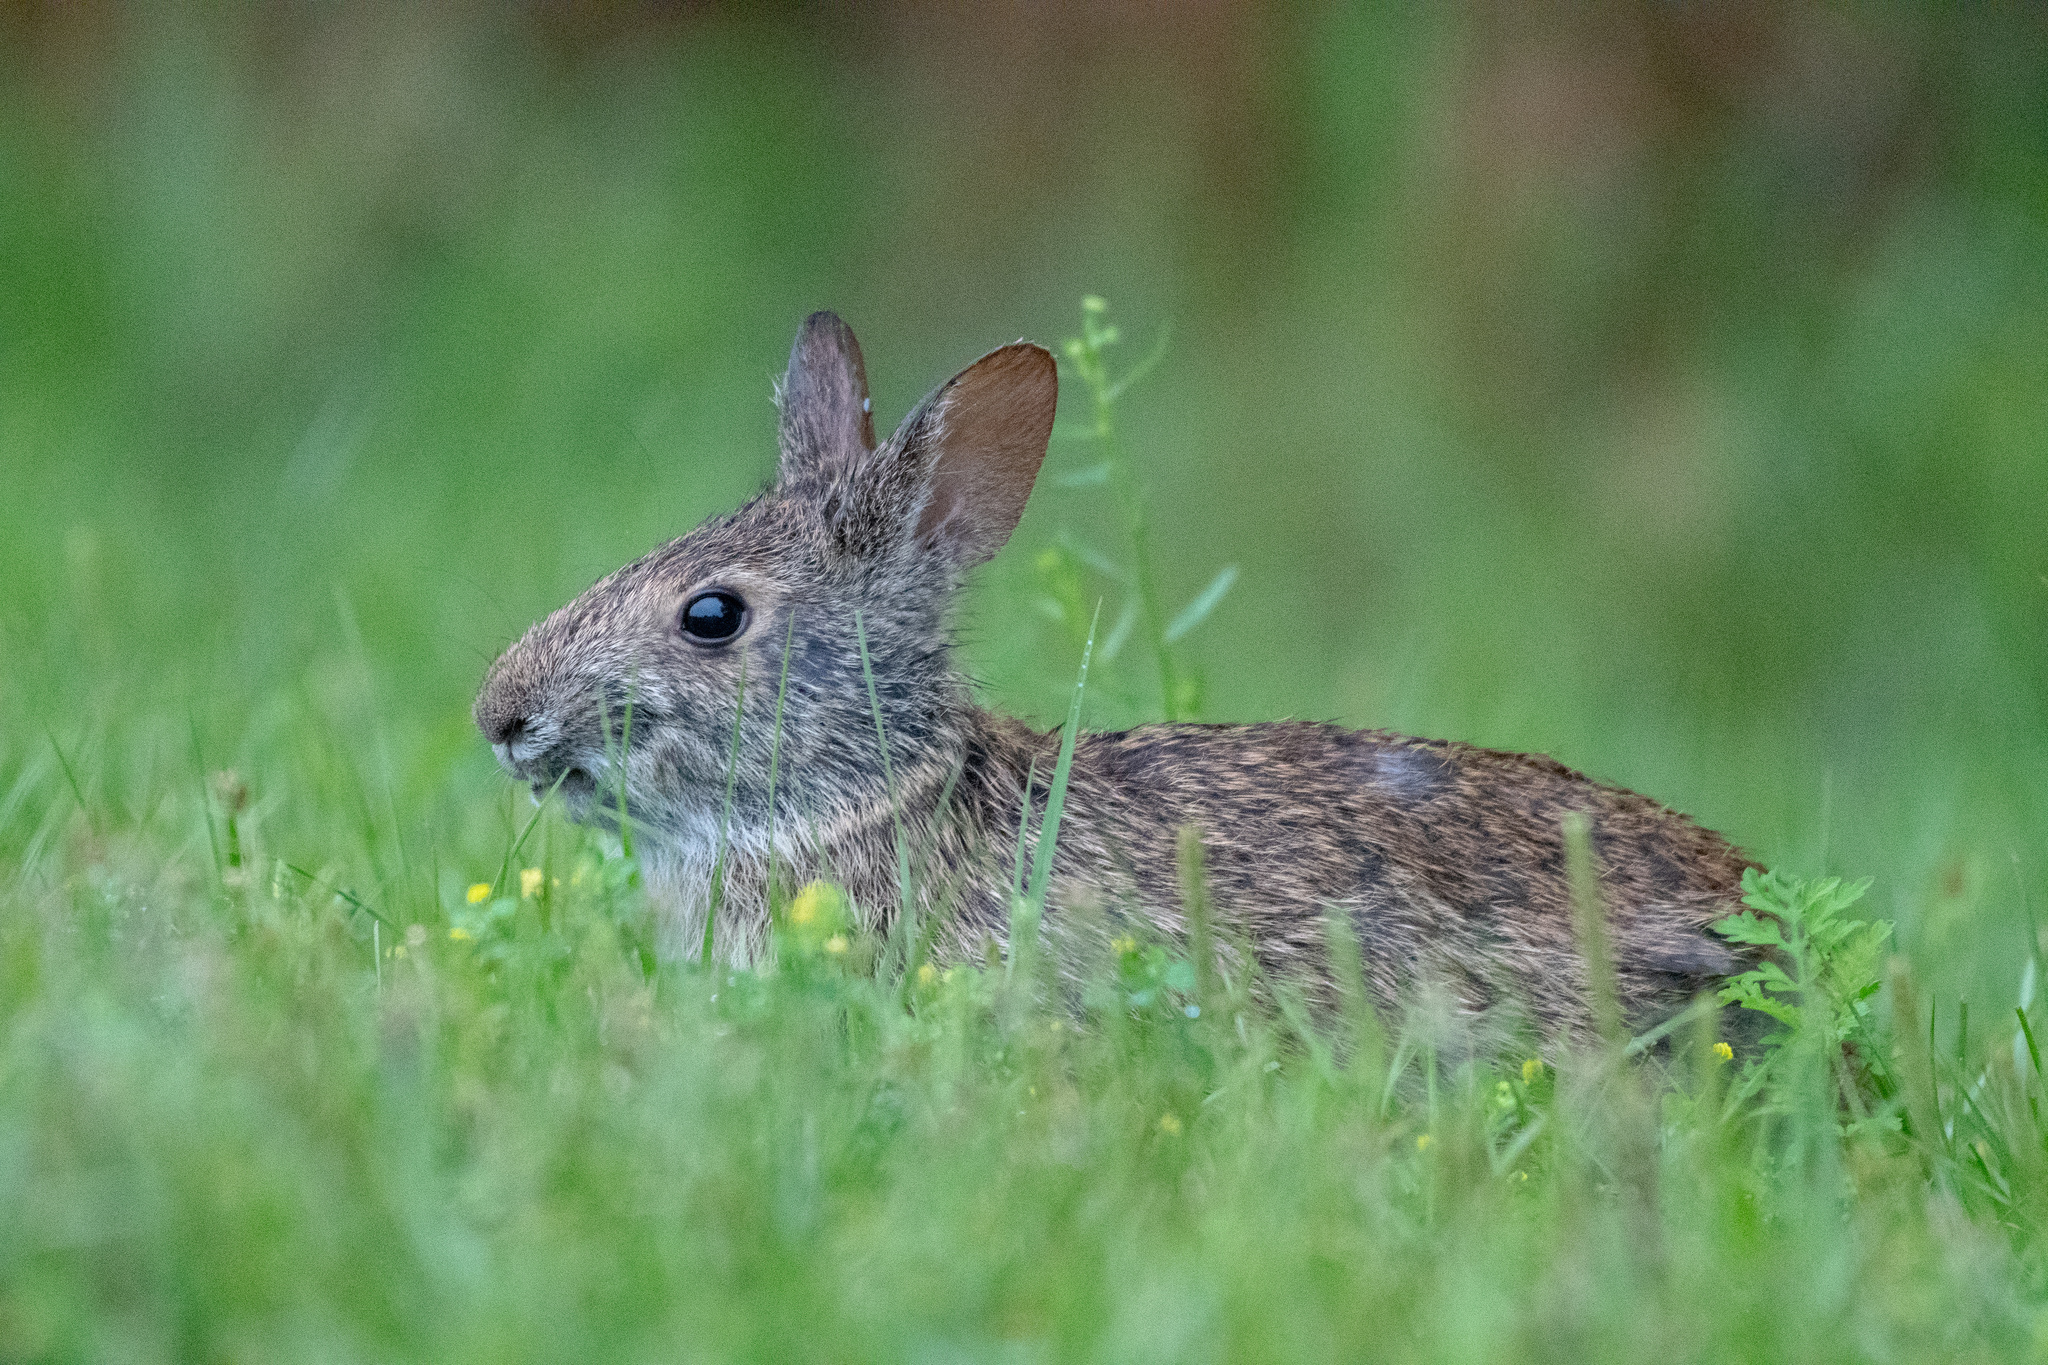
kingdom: Animalia
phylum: Chordata
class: Mammalia
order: Lagomorpha
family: Leporidae
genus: Sylvilagus
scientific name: Sylvilagus palustris
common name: Marsh rabbit
